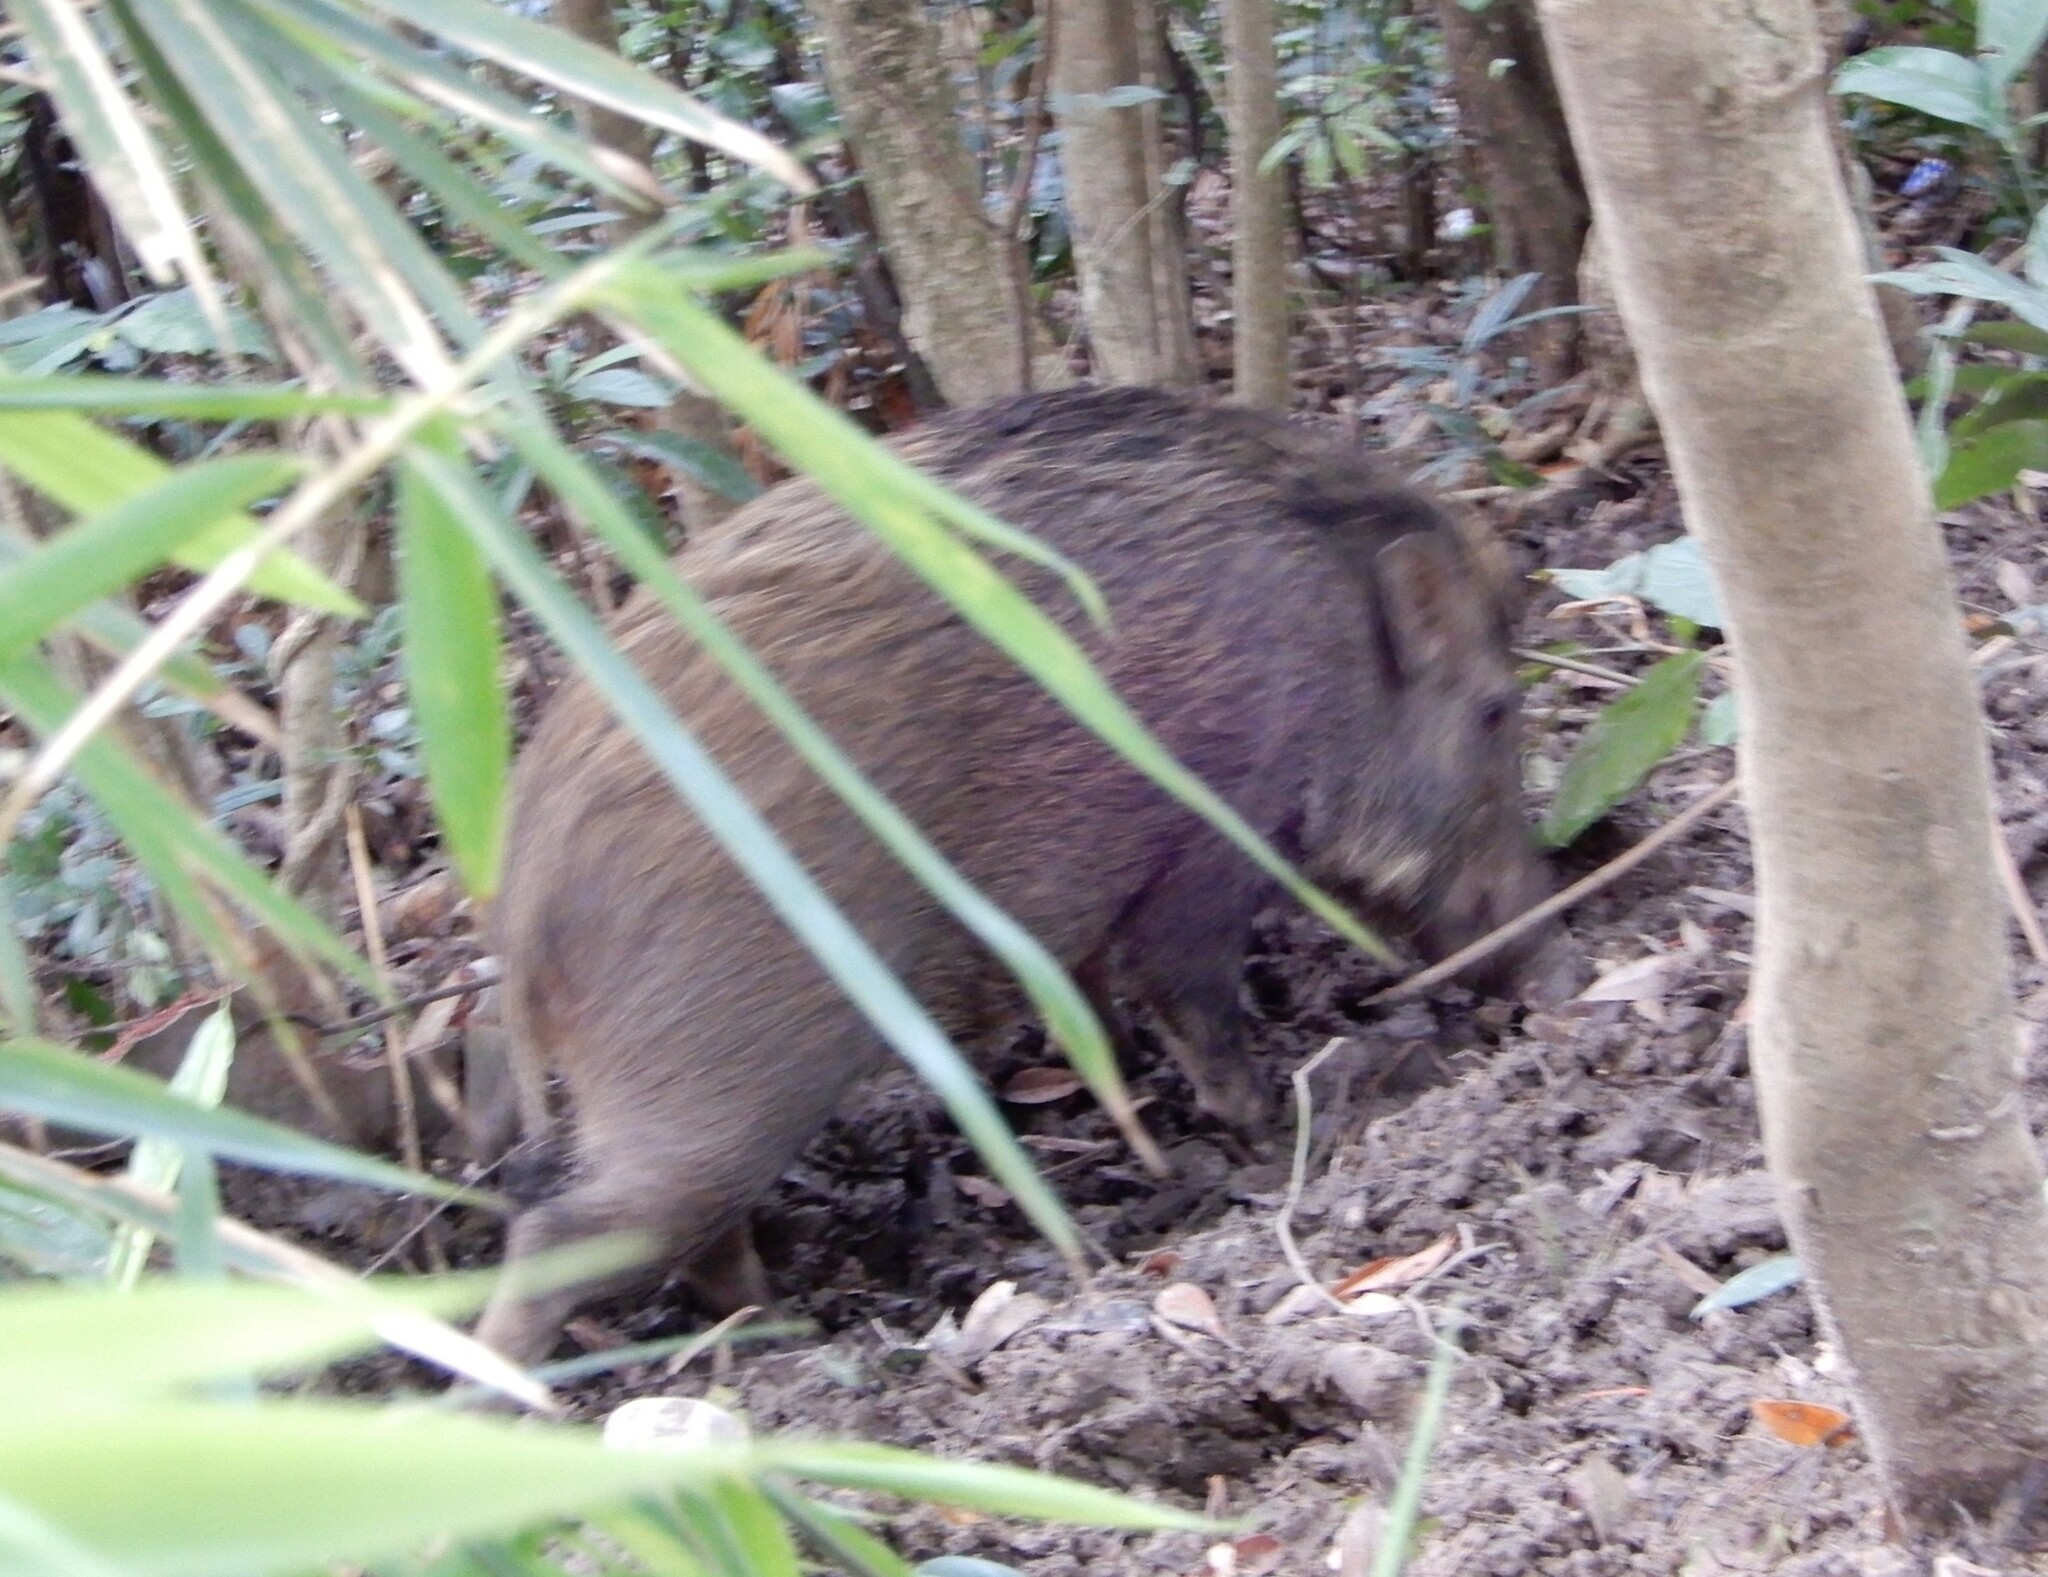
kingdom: Animalia
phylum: Chordata
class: Mammalia
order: Artiodactyla
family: Suidae
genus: Sus
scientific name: Sus scrofa
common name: Wild boar
